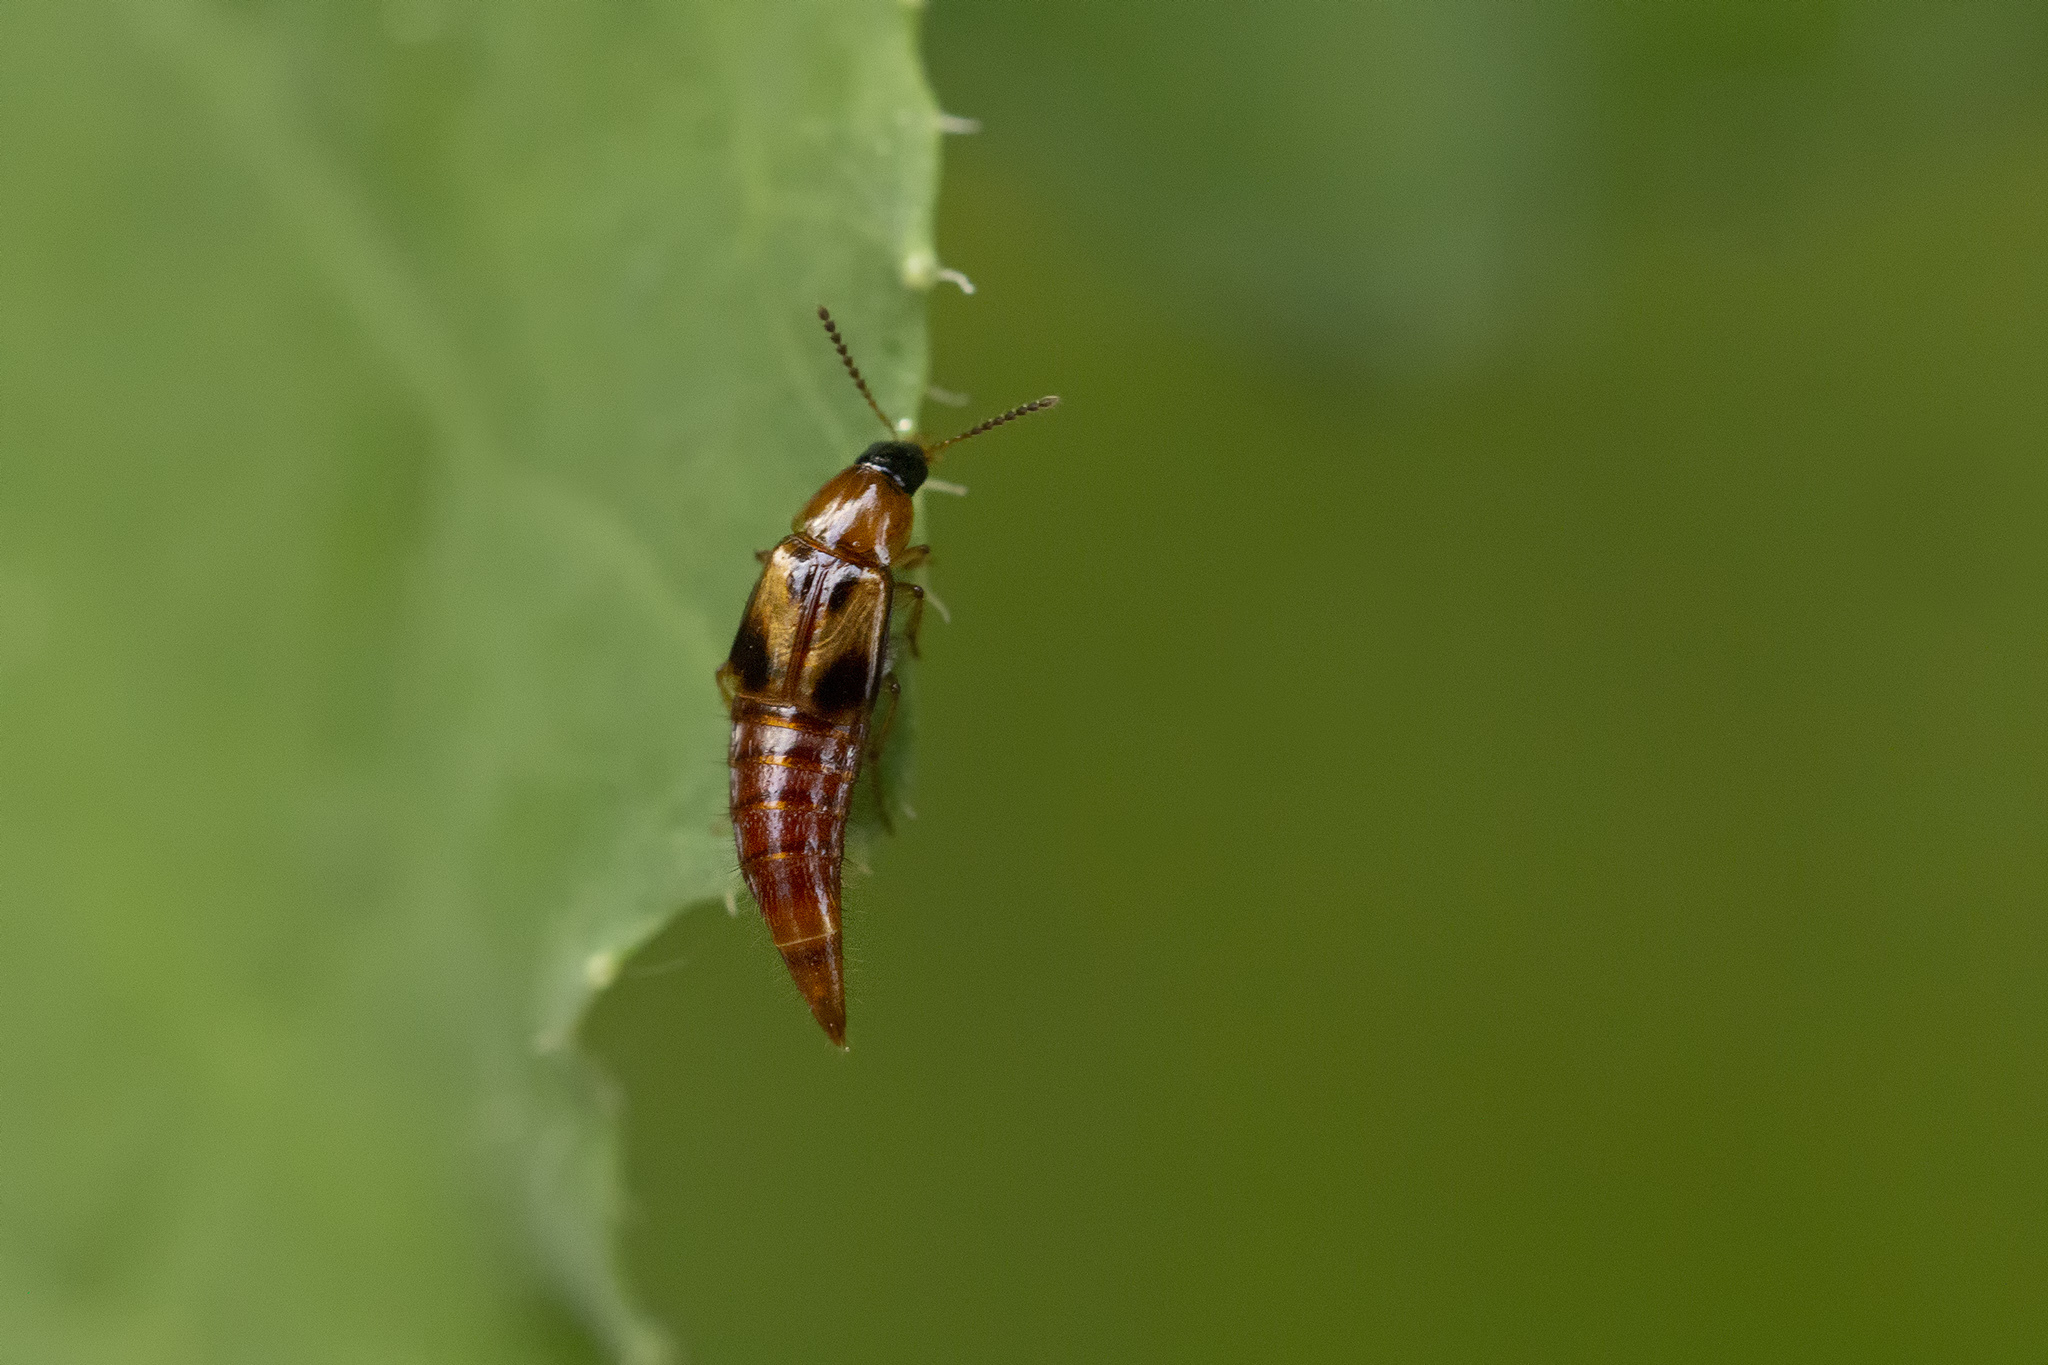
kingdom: Animalia
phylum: Arthropoda
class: Insecta
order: Coleoptera
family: Staphylinidae
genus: Lordithon
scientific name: Lordithon trinotatus
